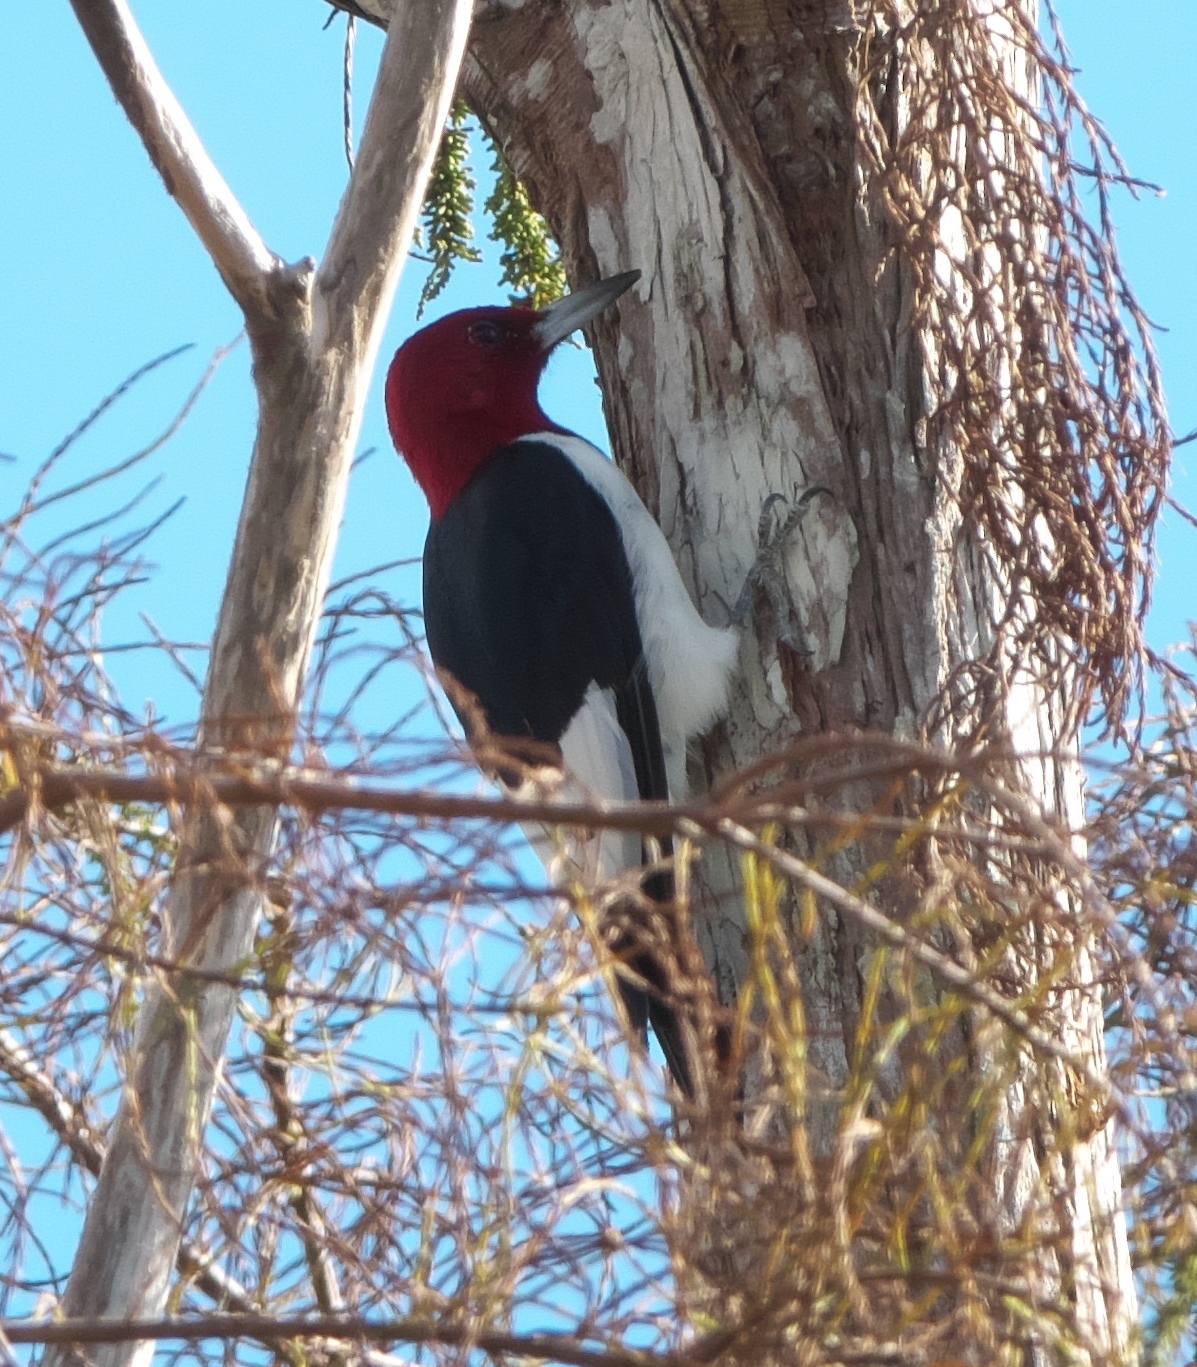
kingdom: Animalia
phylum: Chordata
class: Aves
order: Piciformes
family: Picidae
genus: Melanerpes
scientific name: Melanerpes erythrocephalus
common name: Red-headed woodpecker
